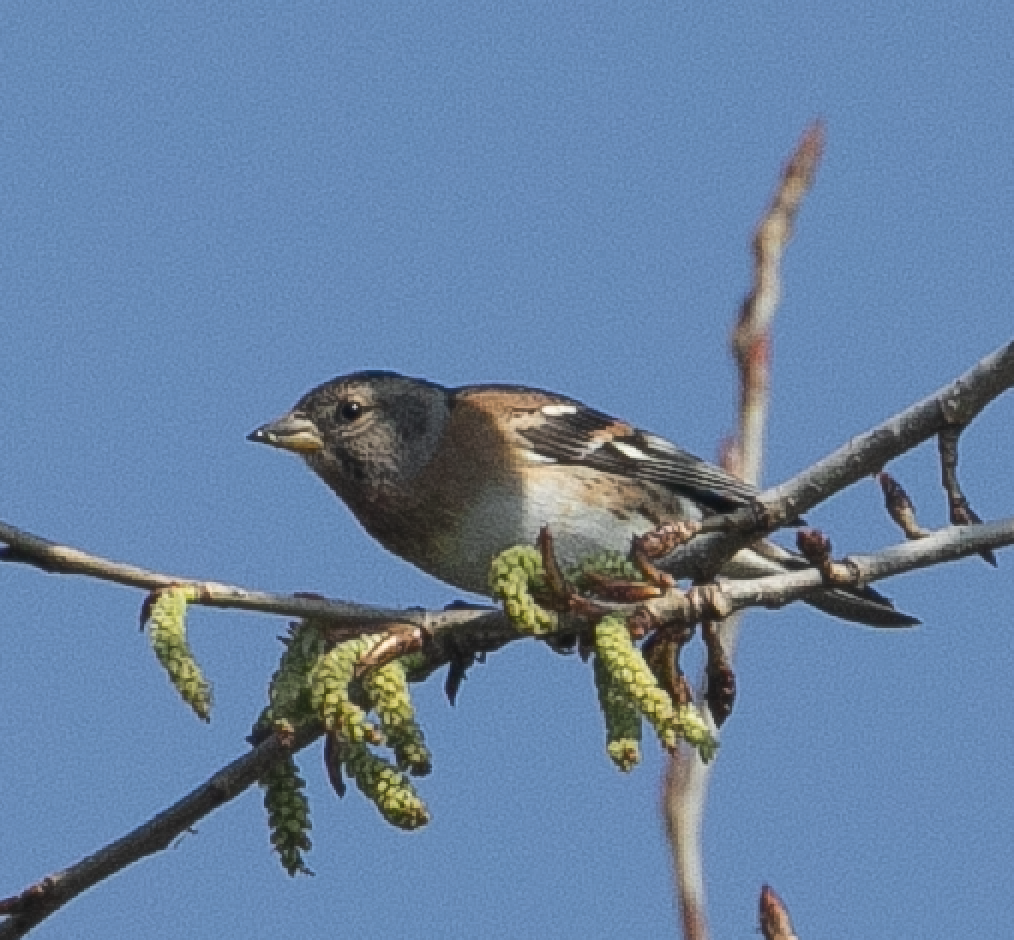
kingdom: Animalia
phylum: Chordata
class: Aves
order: Passeriformes
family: Fringillidae
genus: Fringilla
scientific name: Fringilla montifringilla
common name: Brambling
